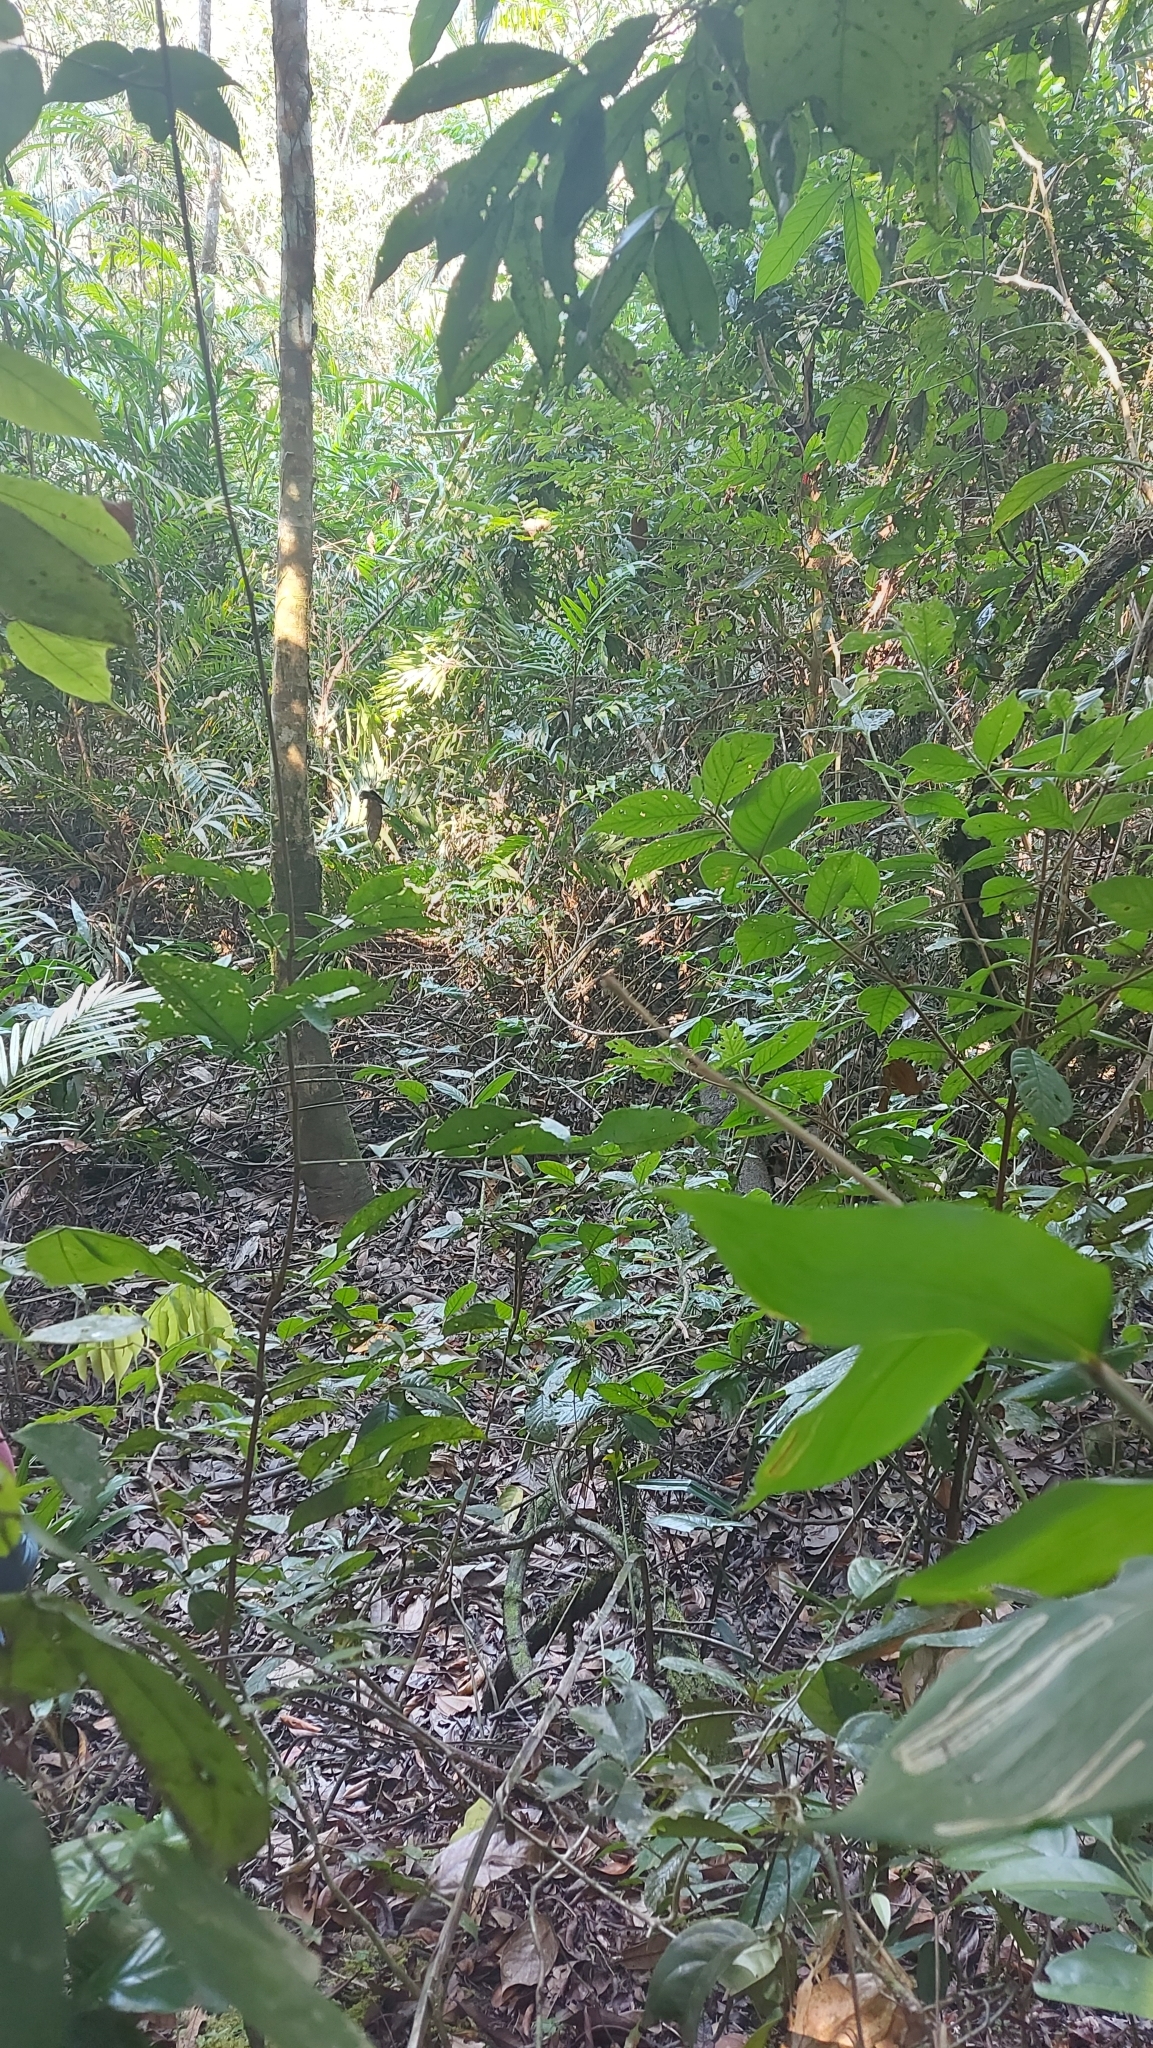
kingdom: Animalia
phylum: Chordata
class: Aves
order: Passeriformes
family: Thamnophilidae
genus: Thamnophilus
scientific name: Thamnophilus praecox
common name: Cocha antshrike
